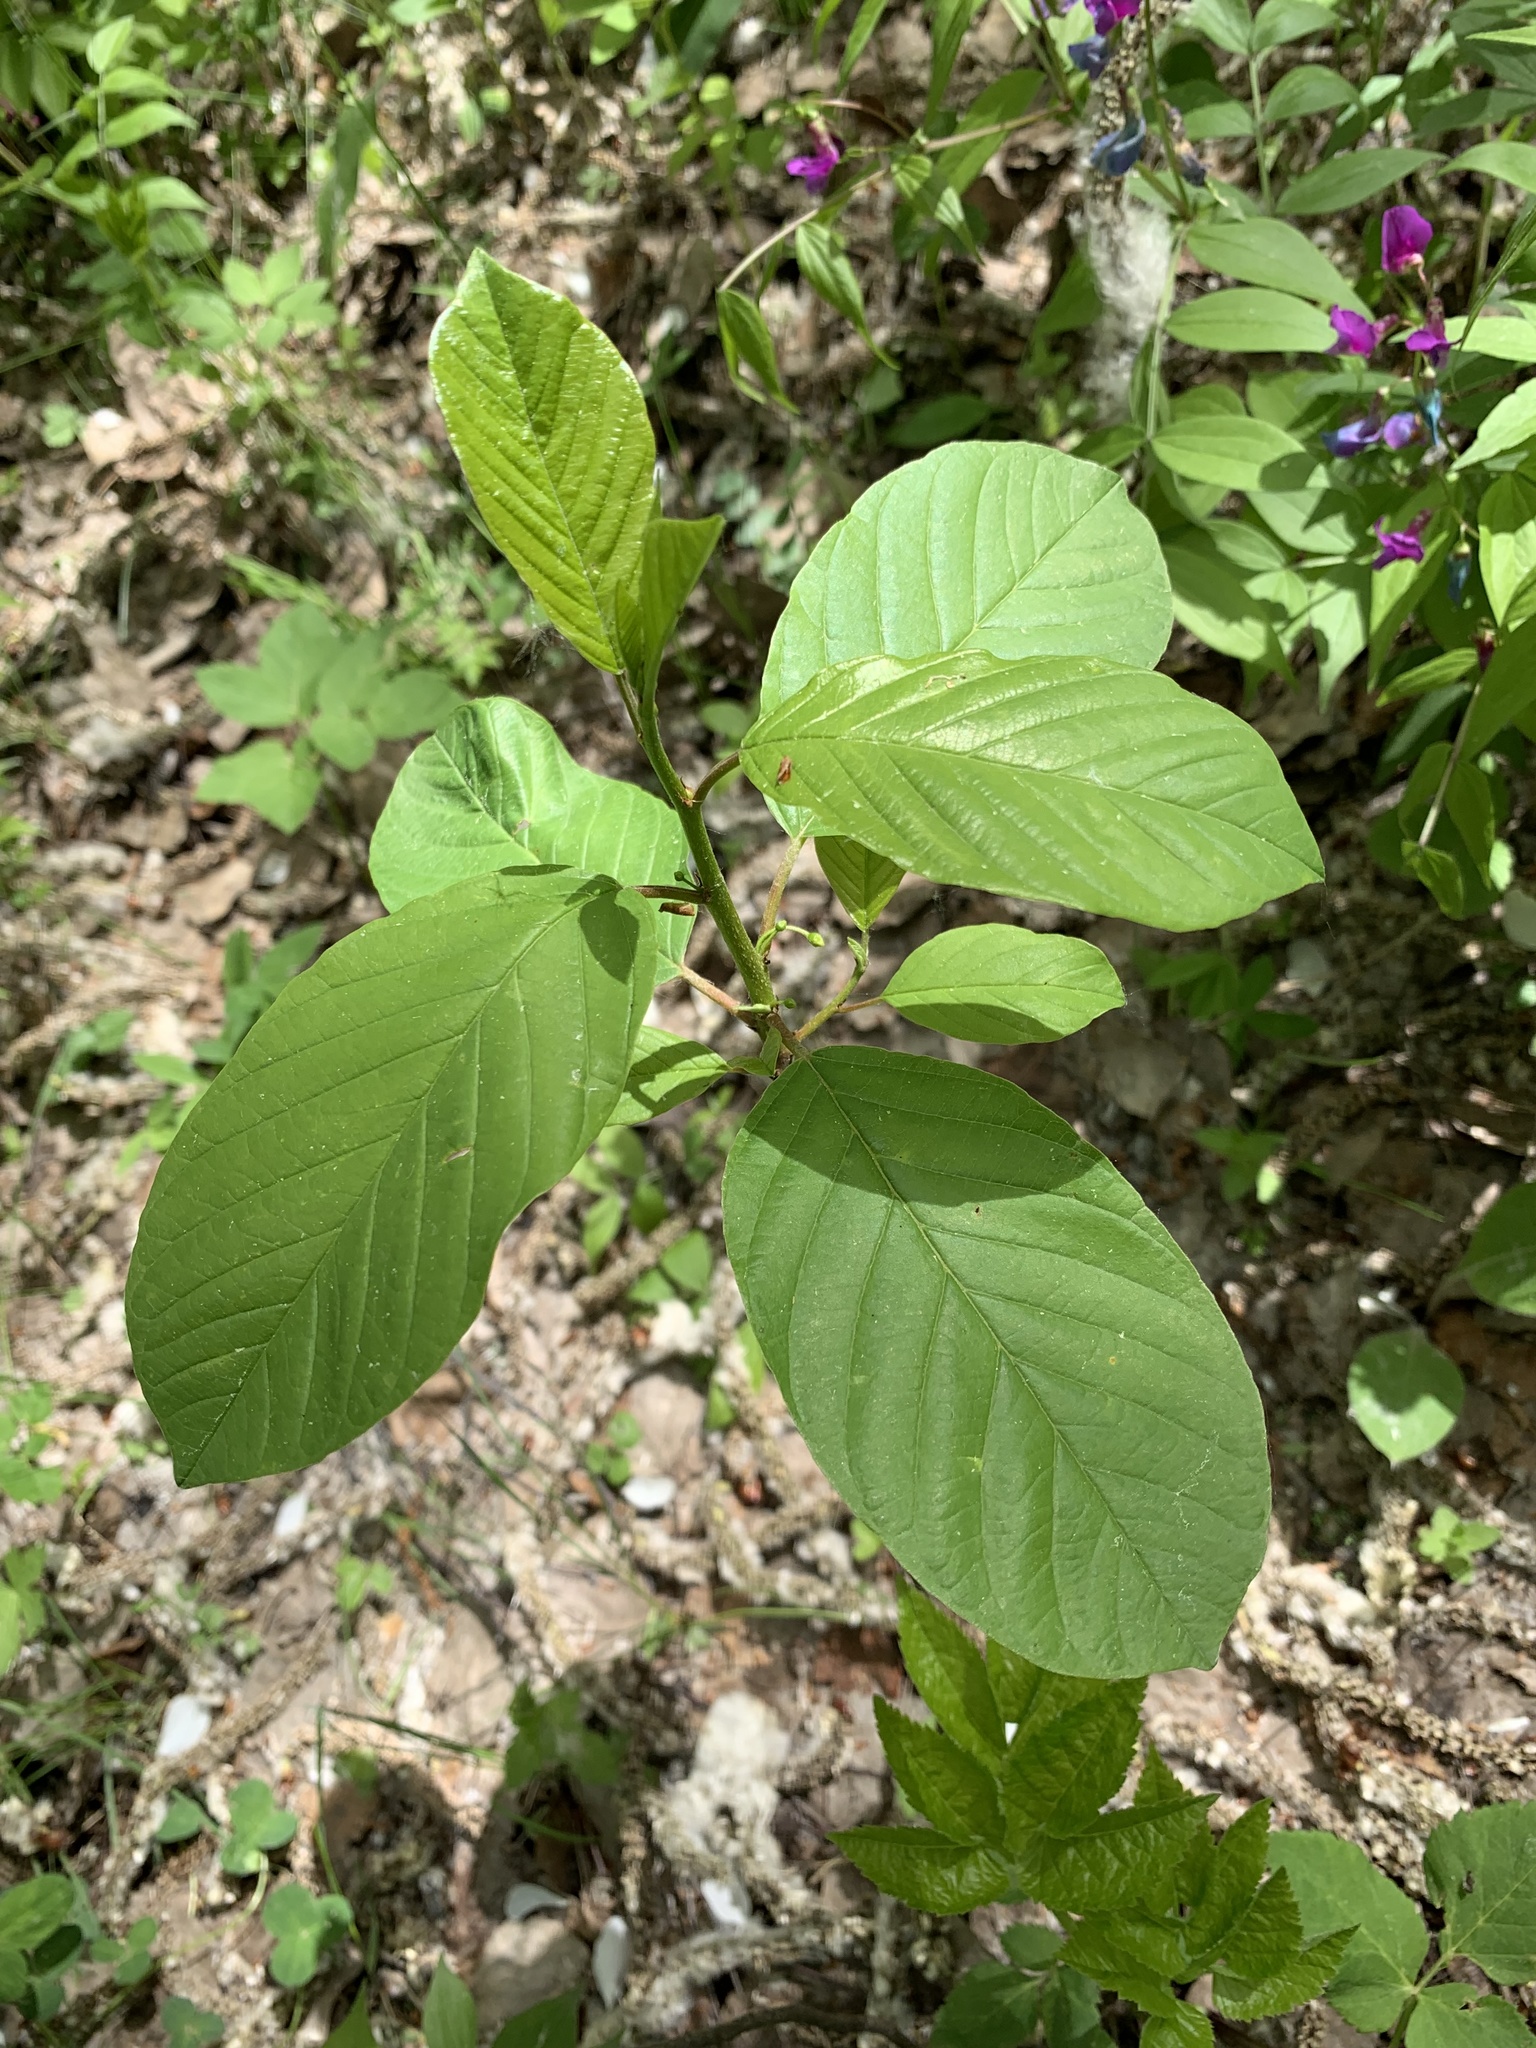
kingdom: Plantae
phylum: Tracheophyta
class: Magnoliopsida
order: Rosales
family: Rhamnaceae
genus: Frangula
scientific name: Frangula alnus
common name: Alder buckthorn
